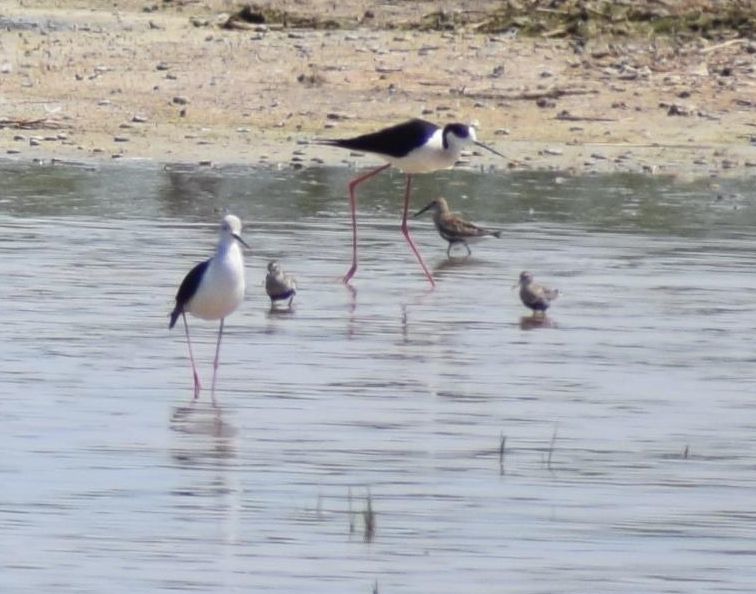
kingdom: Animalia
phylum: Chordata
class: Aves
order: Charadriiformes
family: Recurvirostridae
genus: Himantopus
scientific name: Himantopus himantopus
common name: Black-winged stilt
